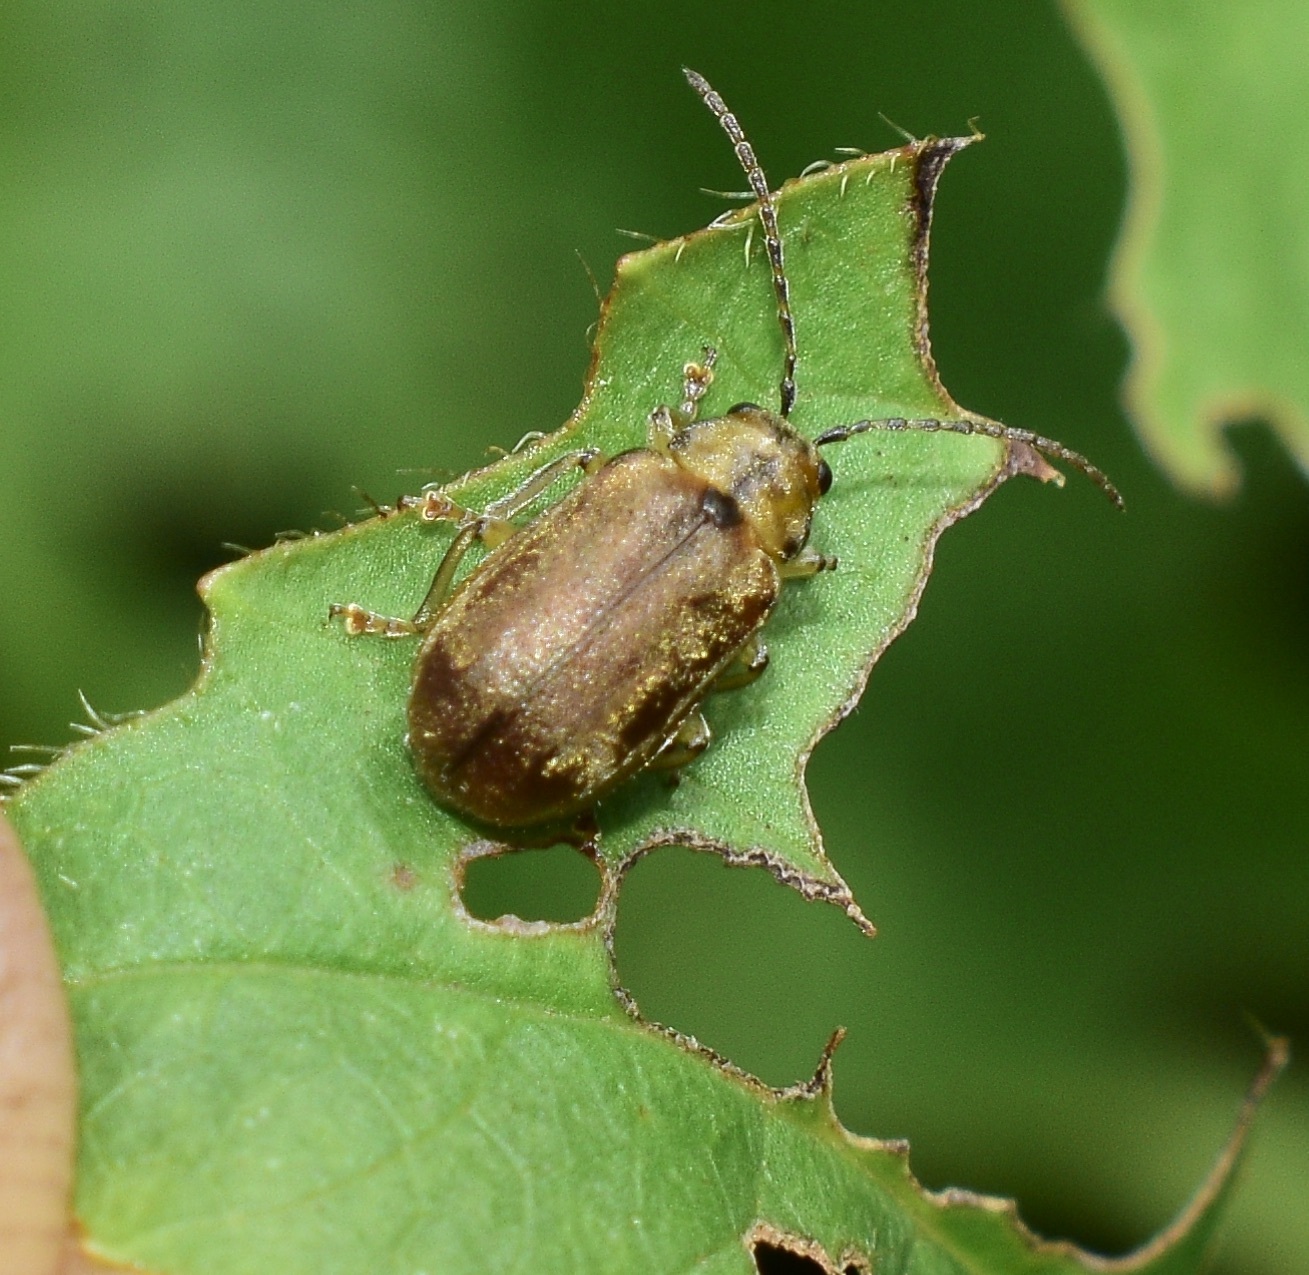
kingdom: Animalia
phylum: Arthropoda
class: Insecta
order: Coleoptera
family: Chrysomelidae
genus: Pyrrhalta
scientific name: Pyrrhalta viburni
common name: Guelder-rose leaf beetle
